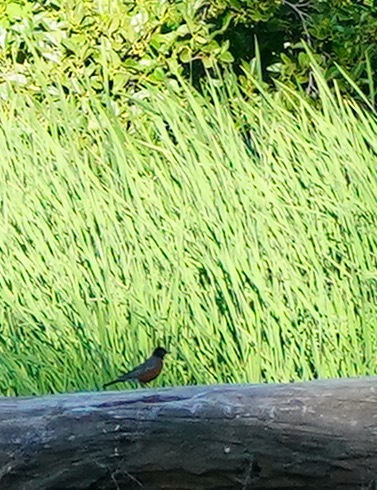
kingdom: Animalia
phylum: Chordata
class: Aves
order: Passeriformes
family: Turdidae
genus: Turdus
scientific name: Turdus migratorius
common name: American robin
